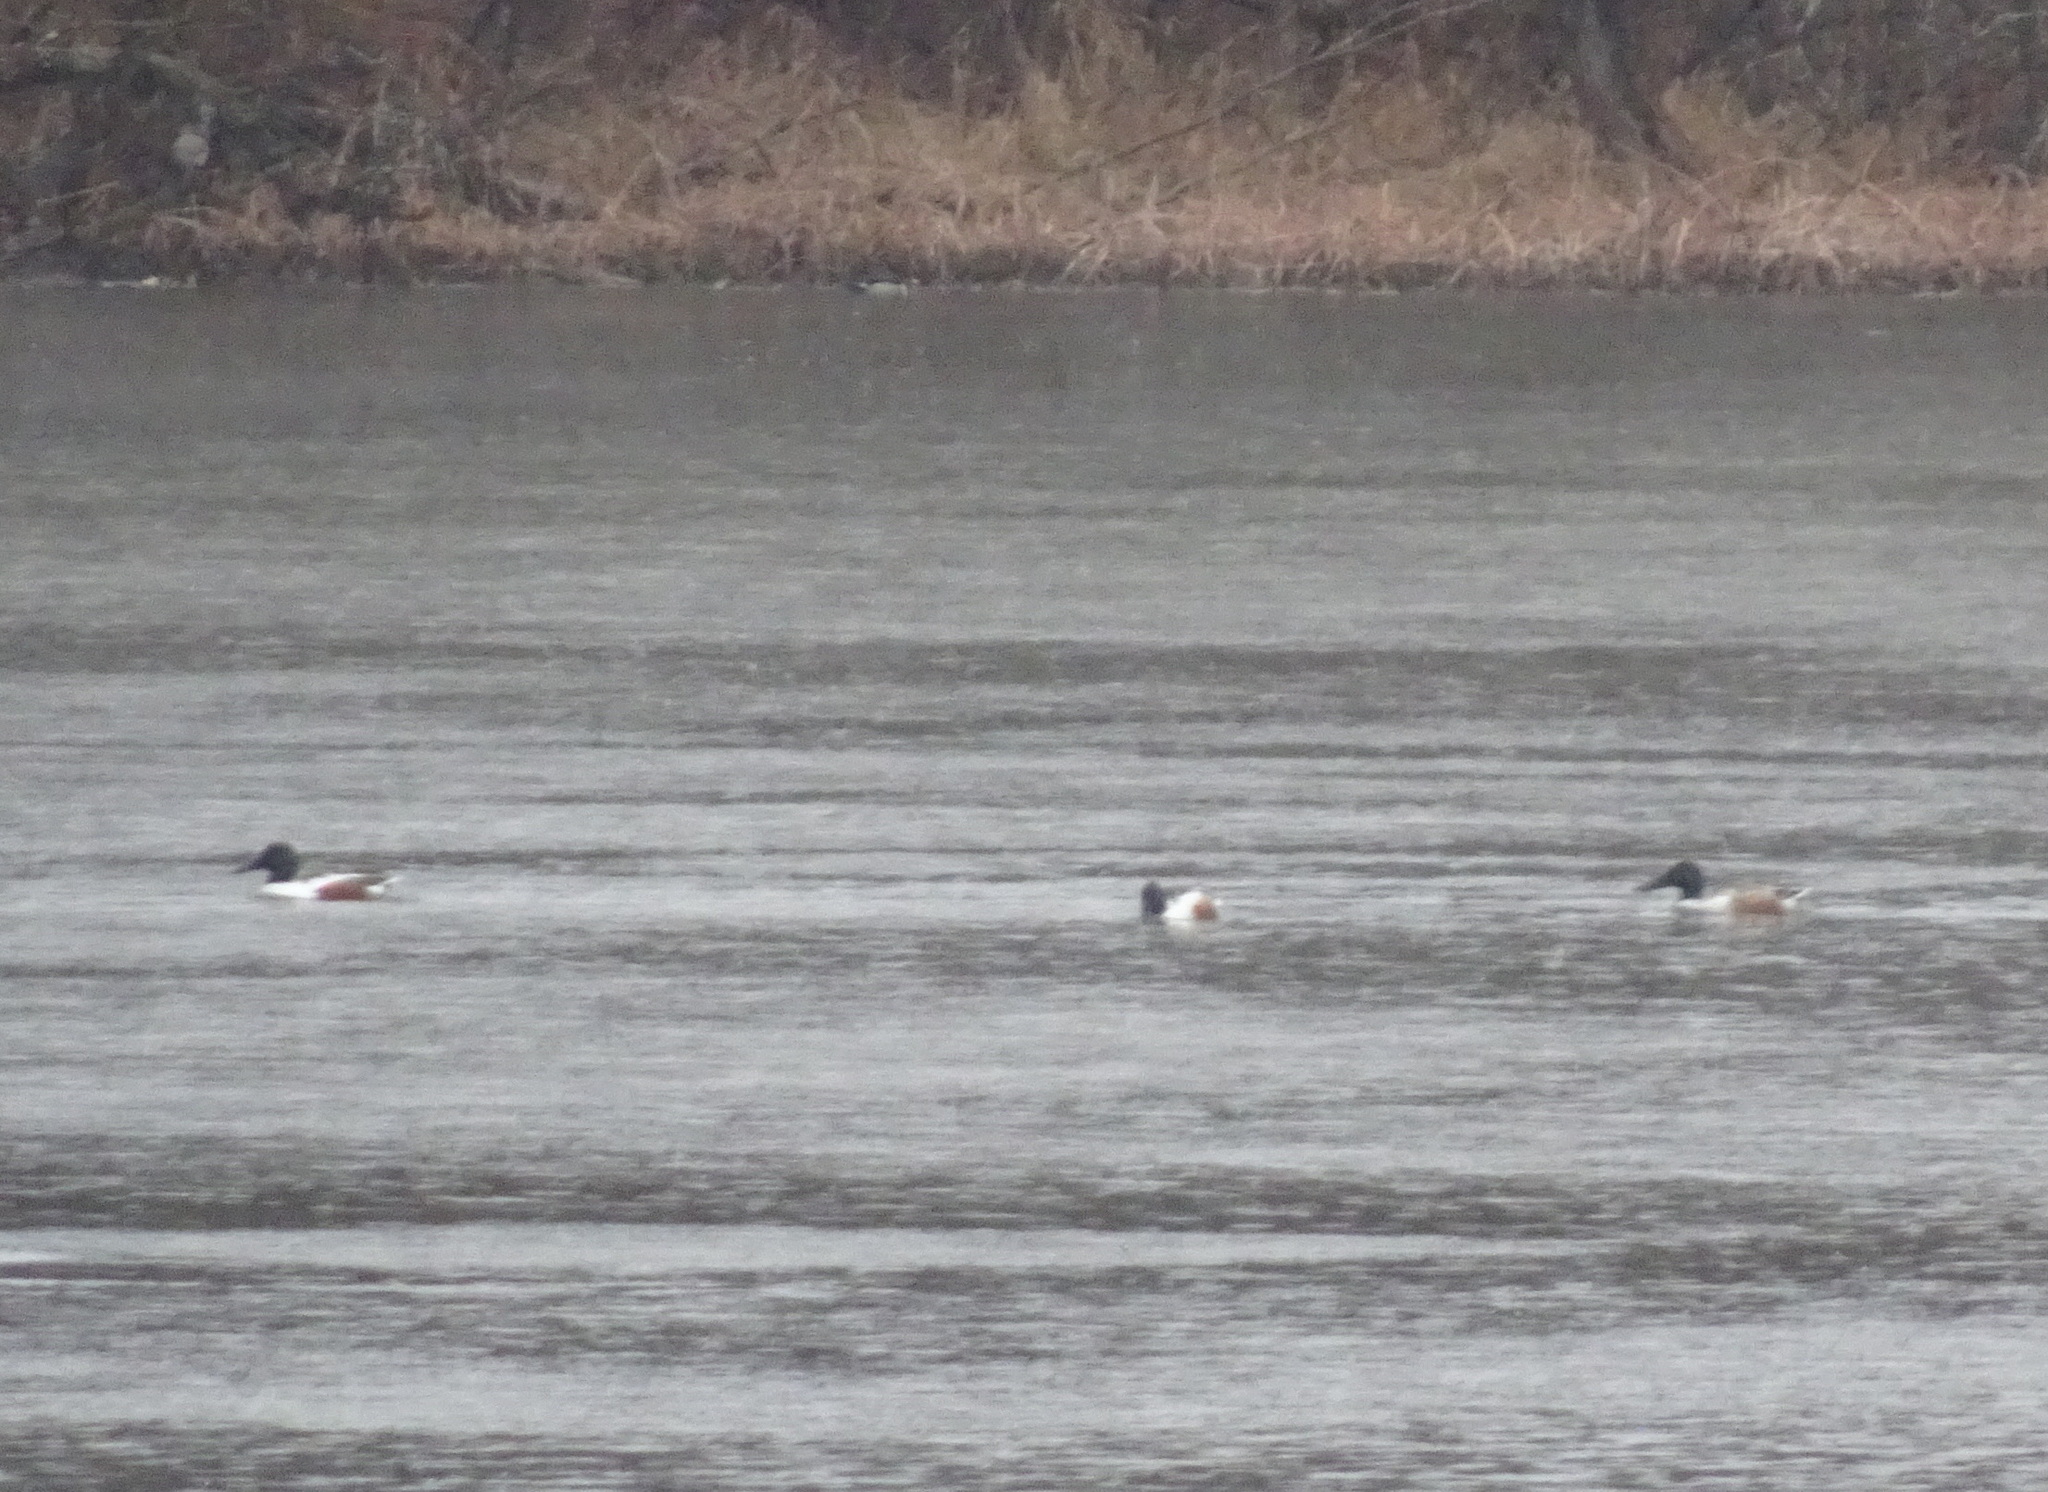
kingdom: Animalia
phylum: Chordata
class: Aves
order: Anseriformes
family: Anatidae
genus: Spatula
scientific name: Spatula clypeata
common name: Northern shoveler
